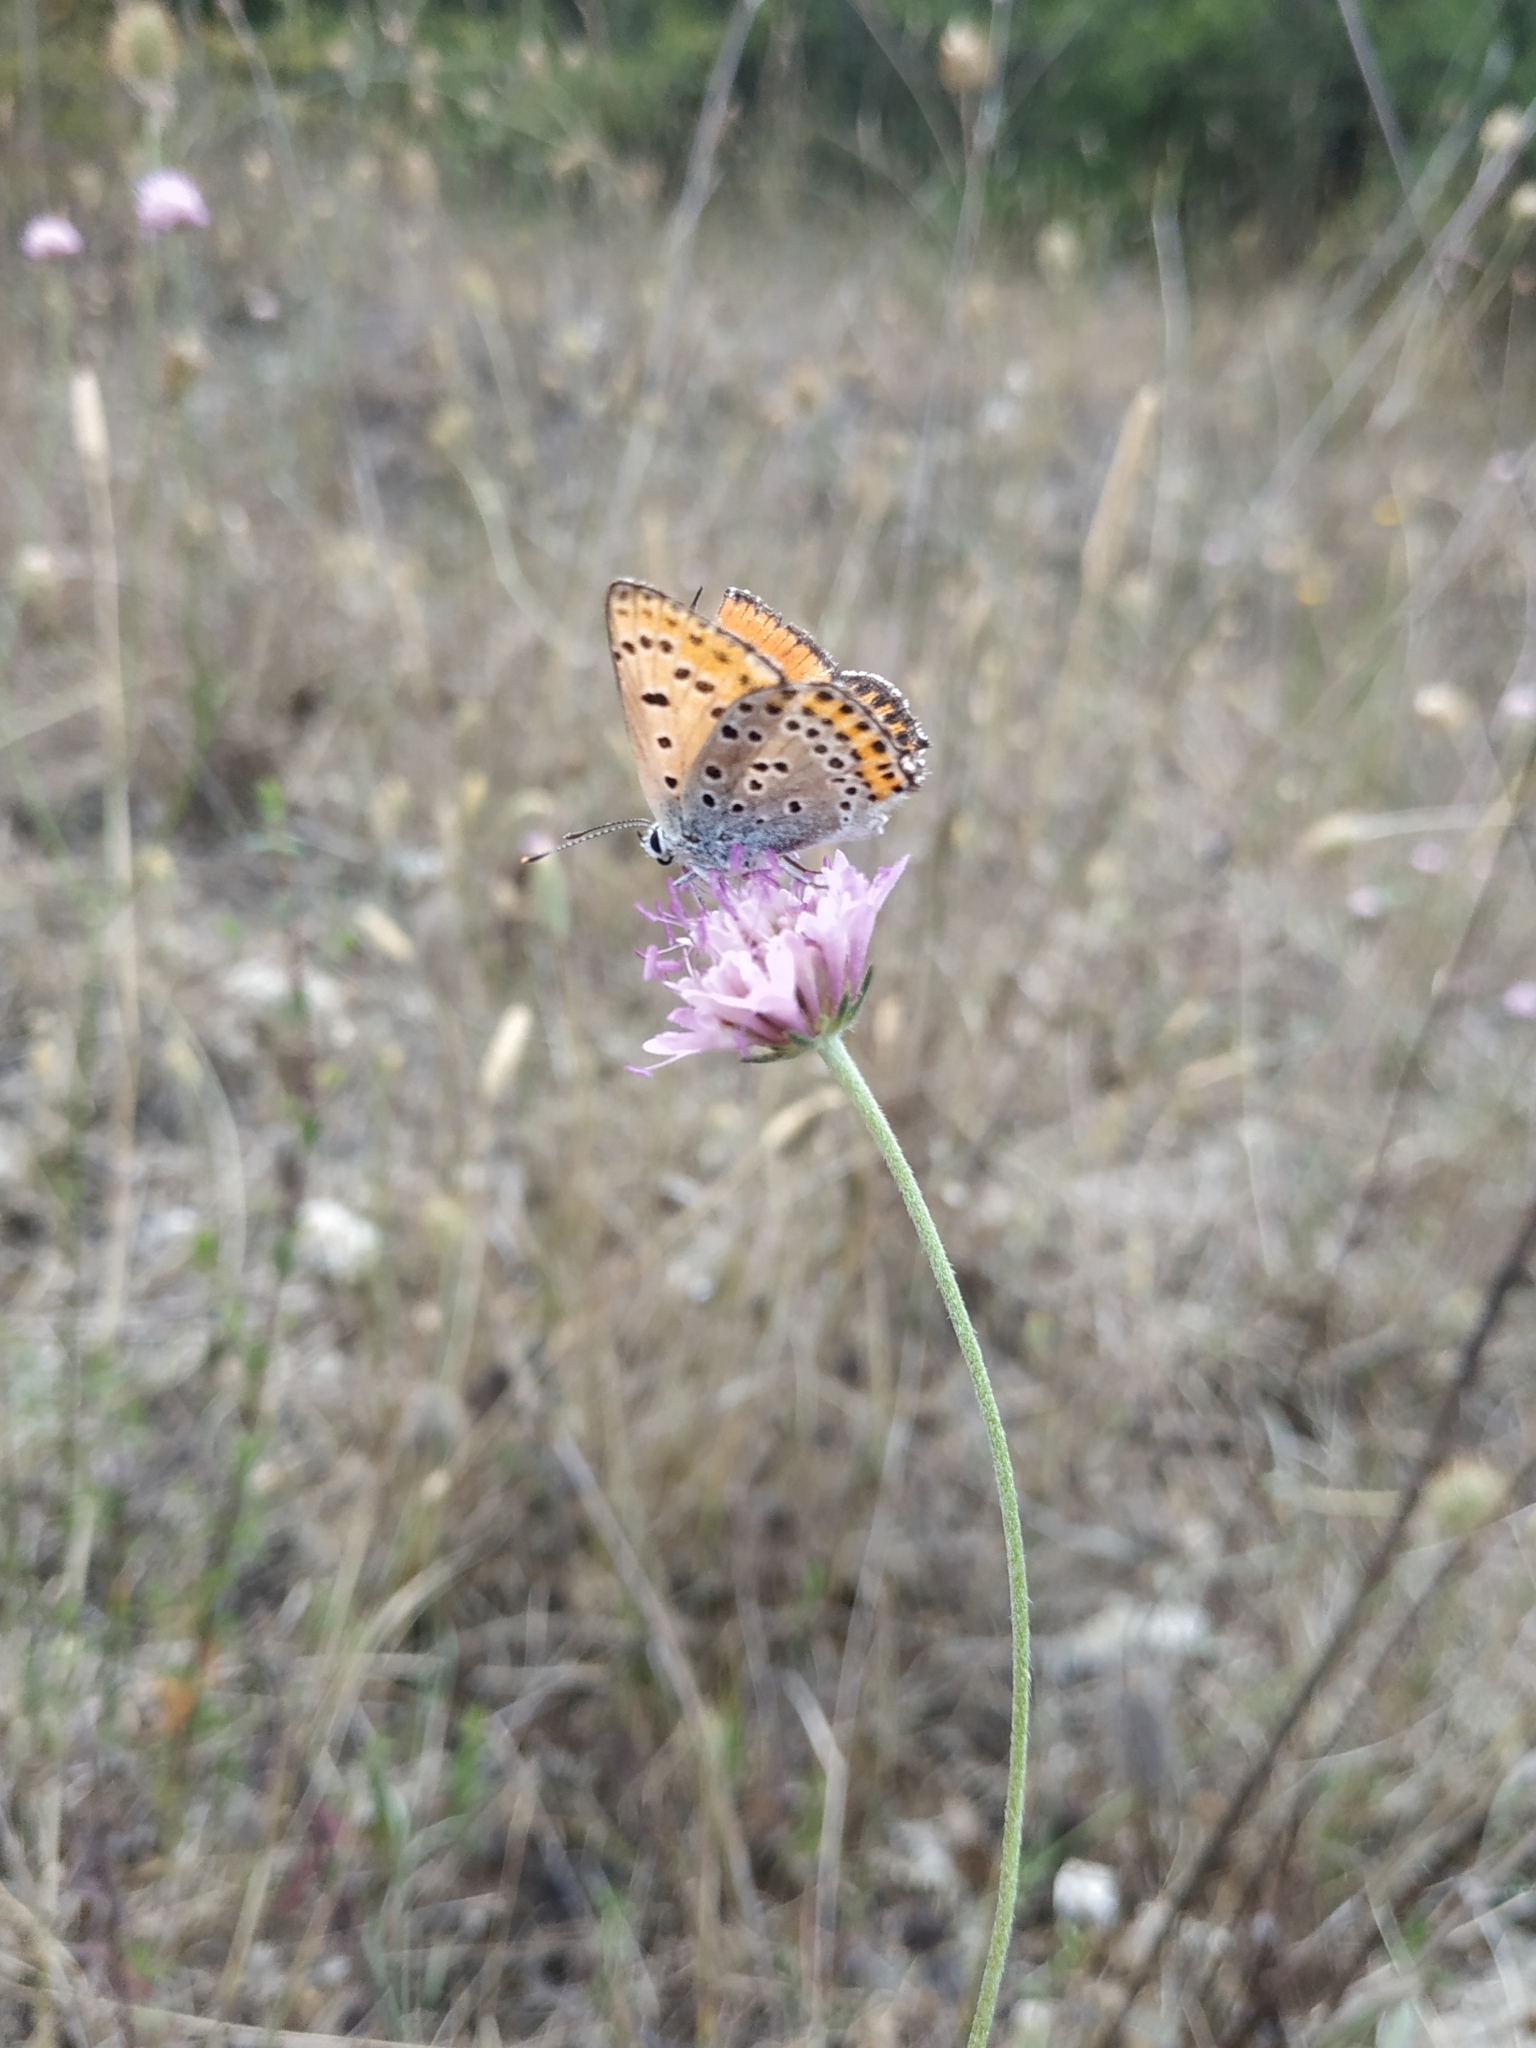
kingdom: Animalia
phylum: Arthropoda
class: Insecta
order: Lepidoptera
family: Lycaenidae
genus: Thersamonia
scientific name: Thersamonia thersamon
